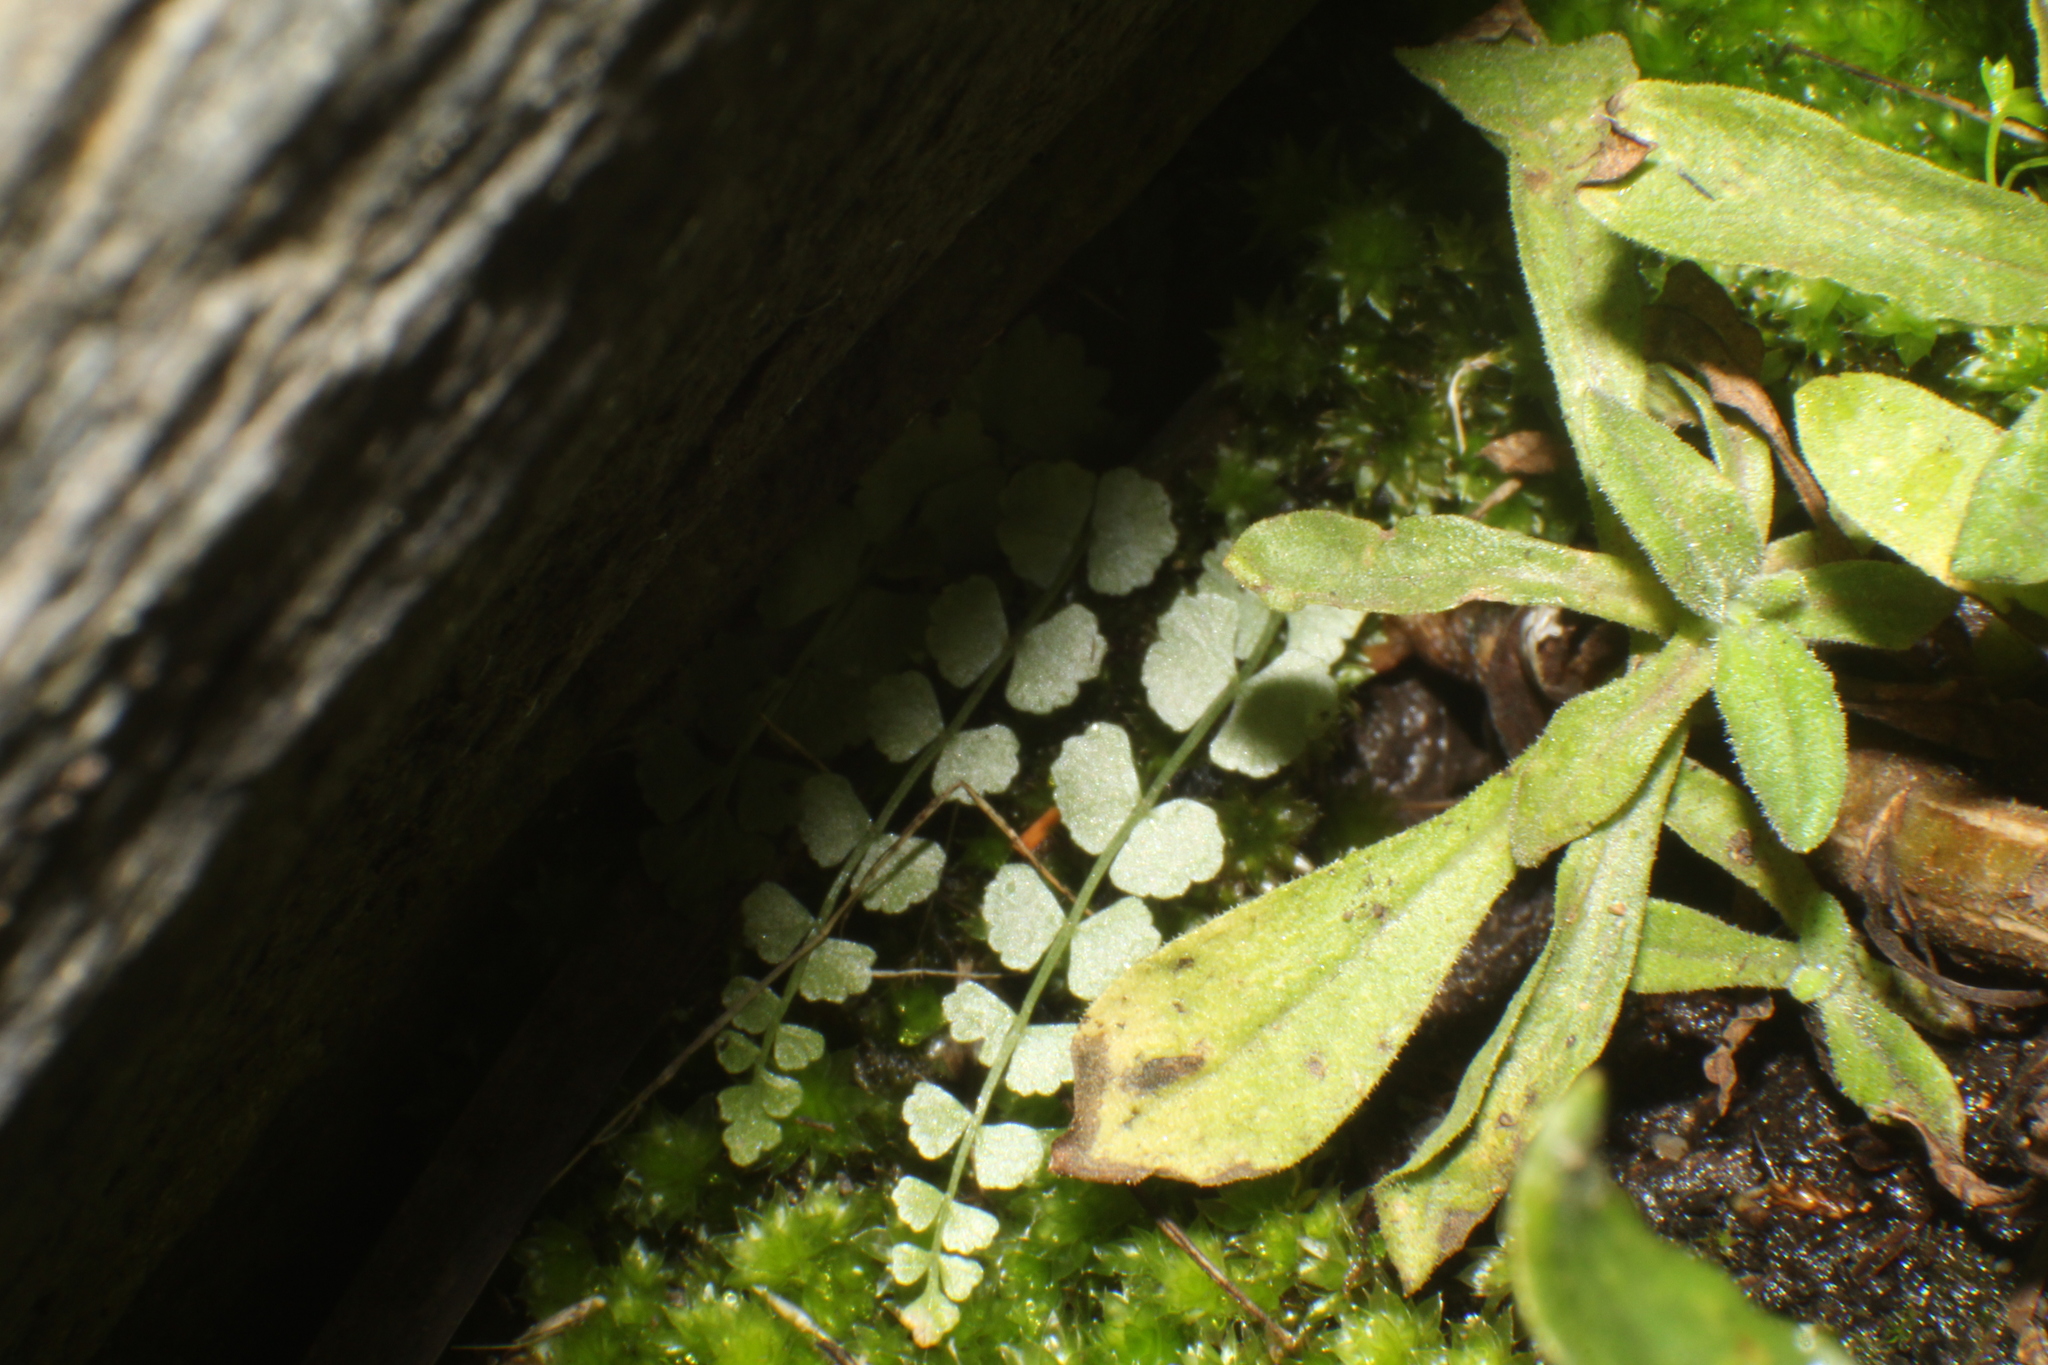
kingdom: Plantae
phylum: Tracheophyta
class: Polypodiopsida
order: Polypodiales
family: Aspleniaceae
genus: Asplenium
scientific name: Asplenium flabellifolium
